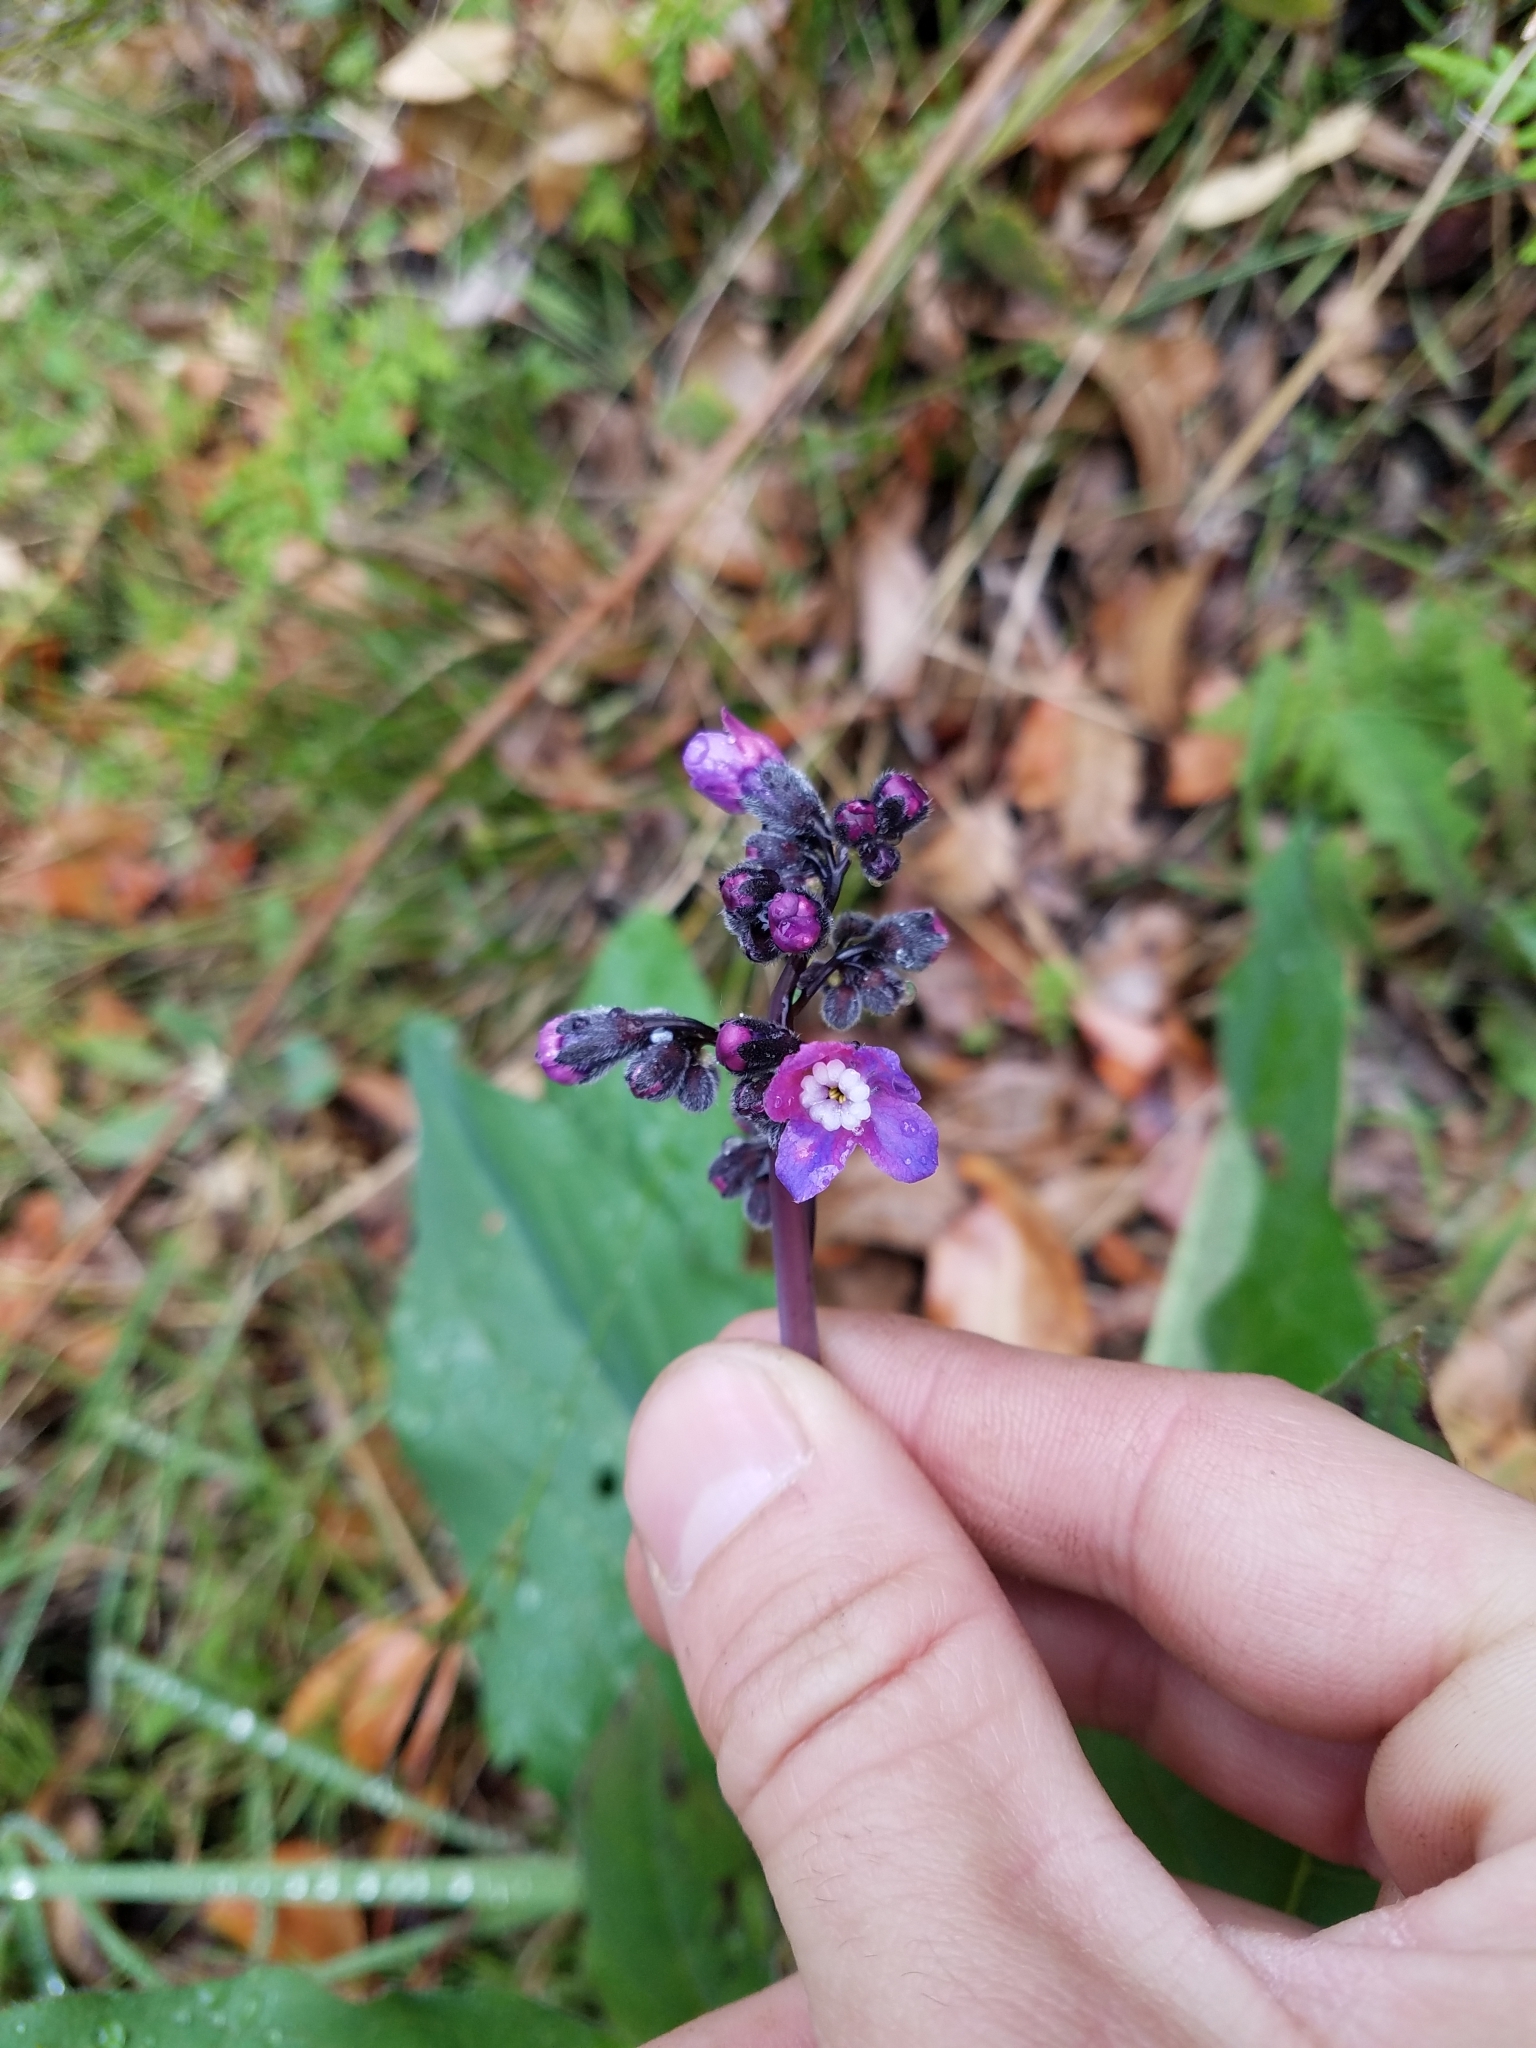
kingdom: Plantae
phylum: Tracheophyta
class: Magnoliopsida
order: Boraginales
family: Boraginaceae
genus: Adelinia
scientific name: Adelinia grande
